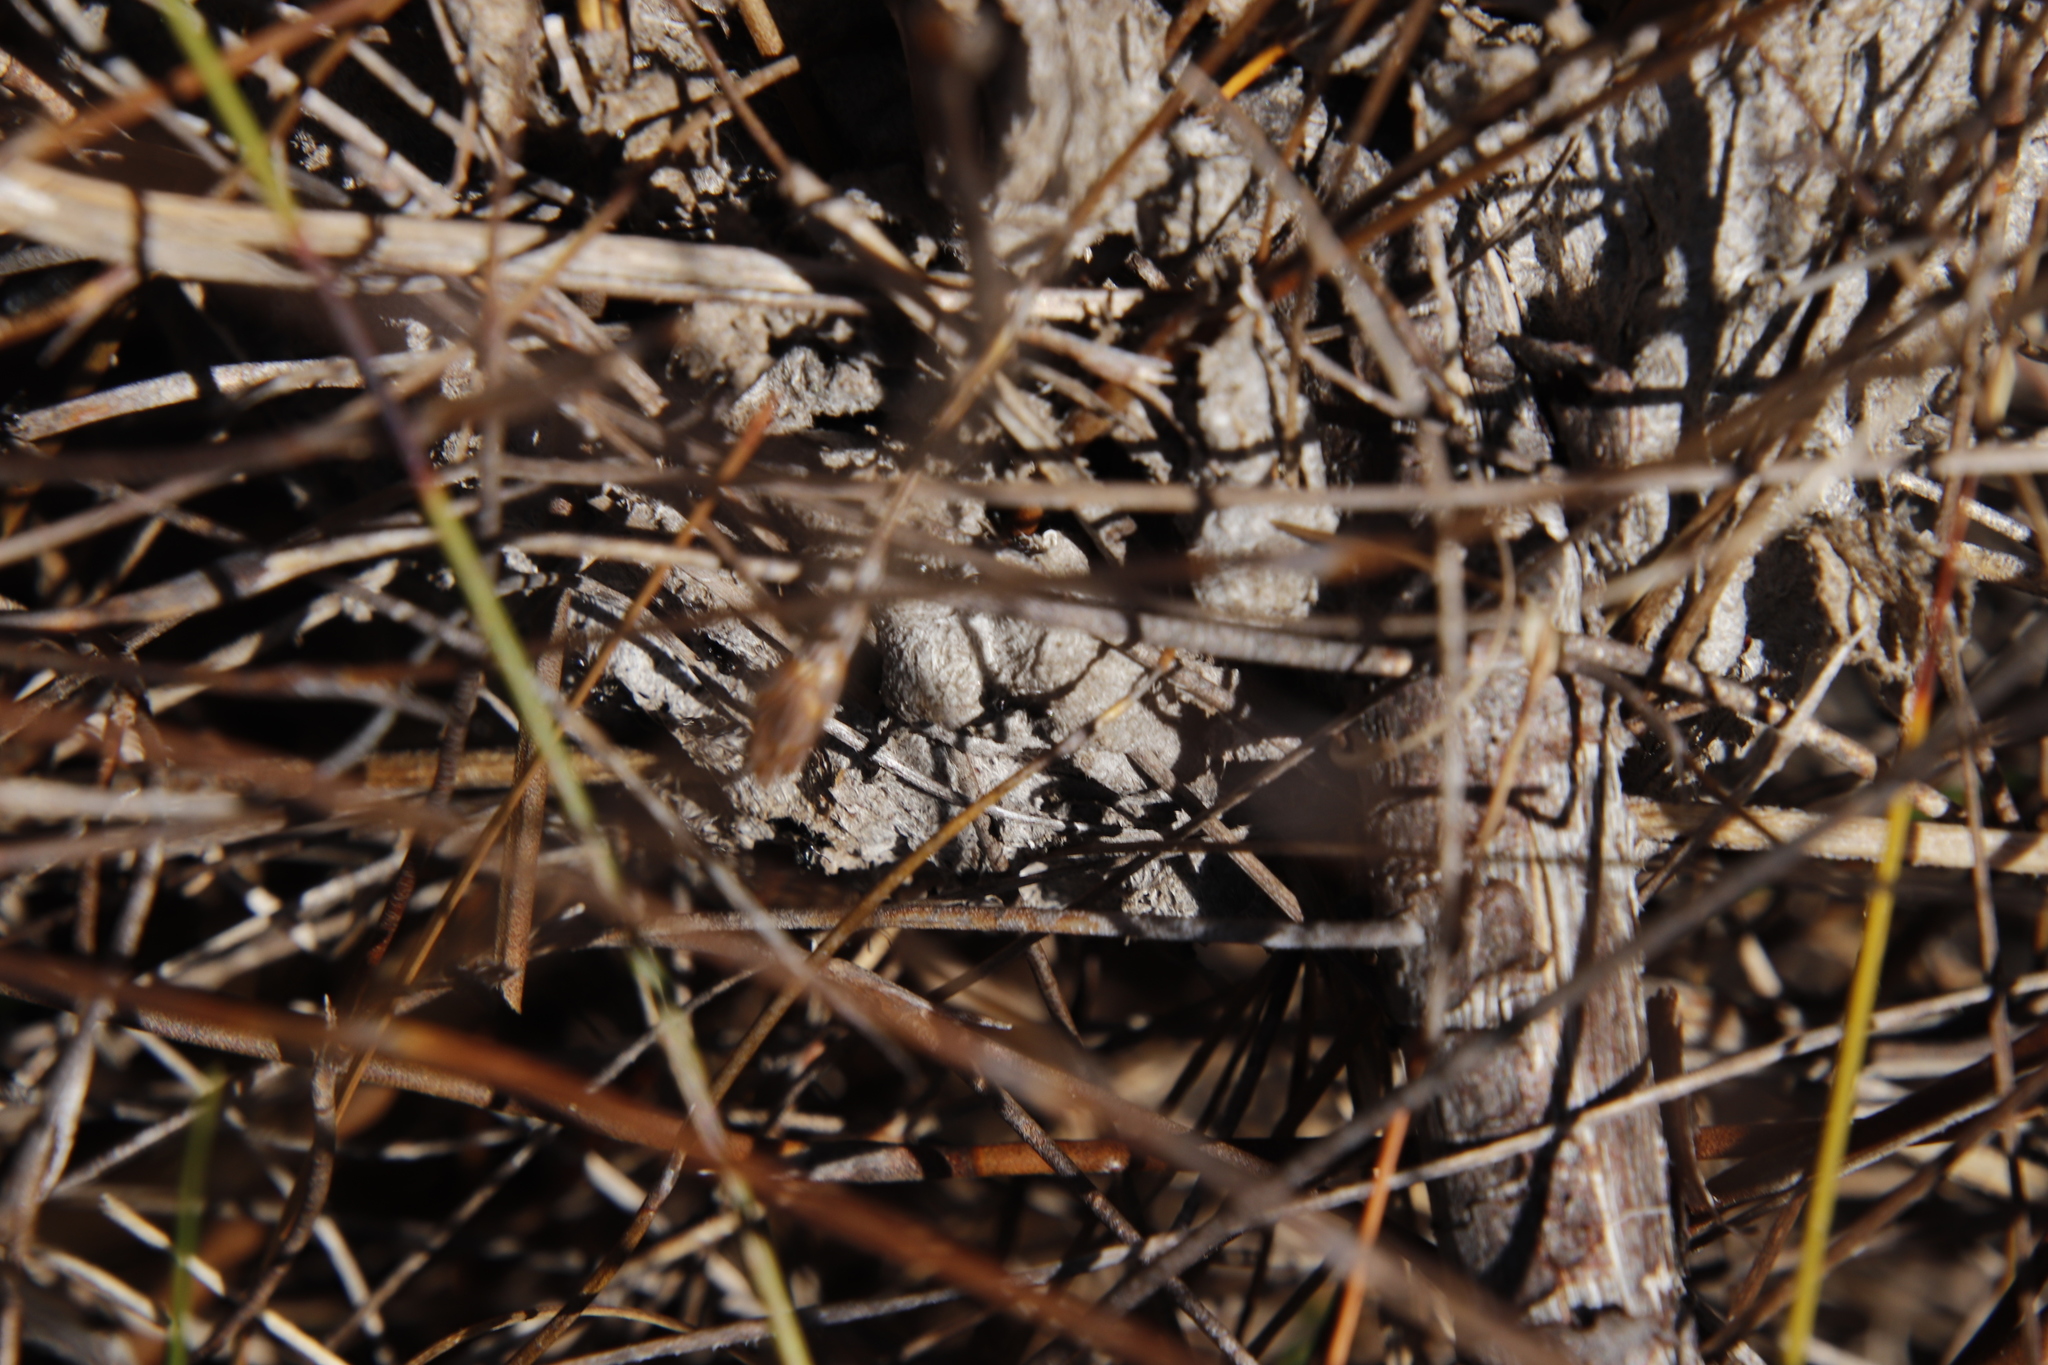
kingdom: Animalia
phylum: Arthropoda
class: Insecta
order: Hymenoptera
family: Formicidae
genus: Crematogaster
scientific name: Crematogaster peringueyi
